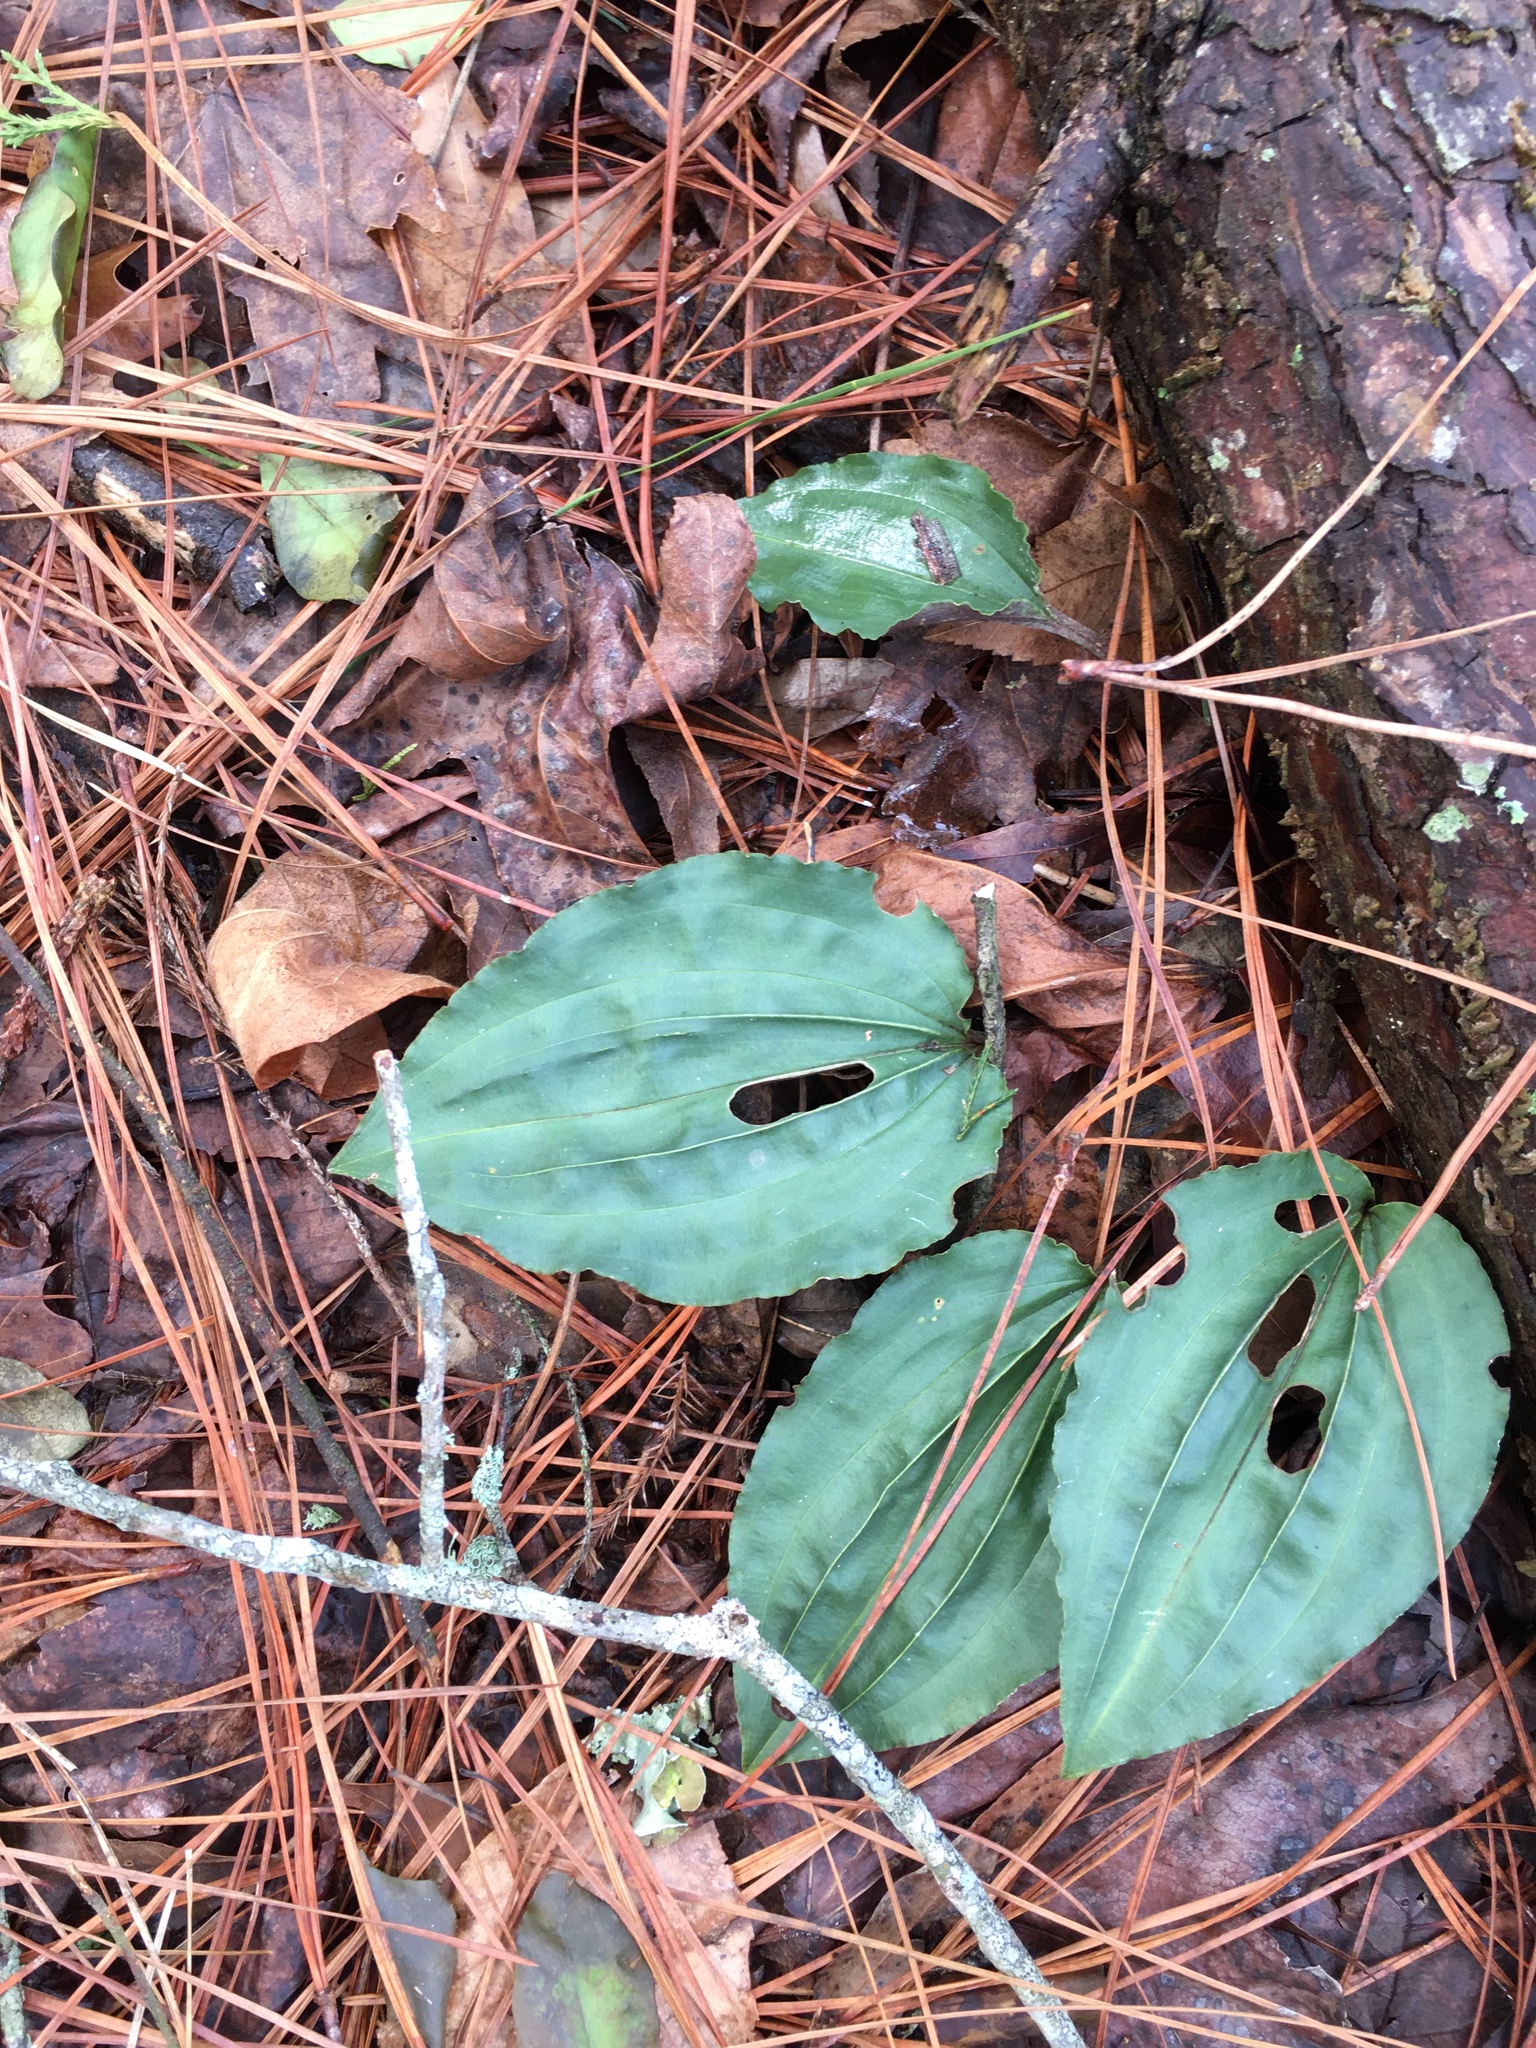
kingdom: Plantae
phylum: Tracheophyta
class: Liliopsida
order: Asparagales
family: Orchidaceae
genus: Tipularia
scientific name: Tipularia discolor
